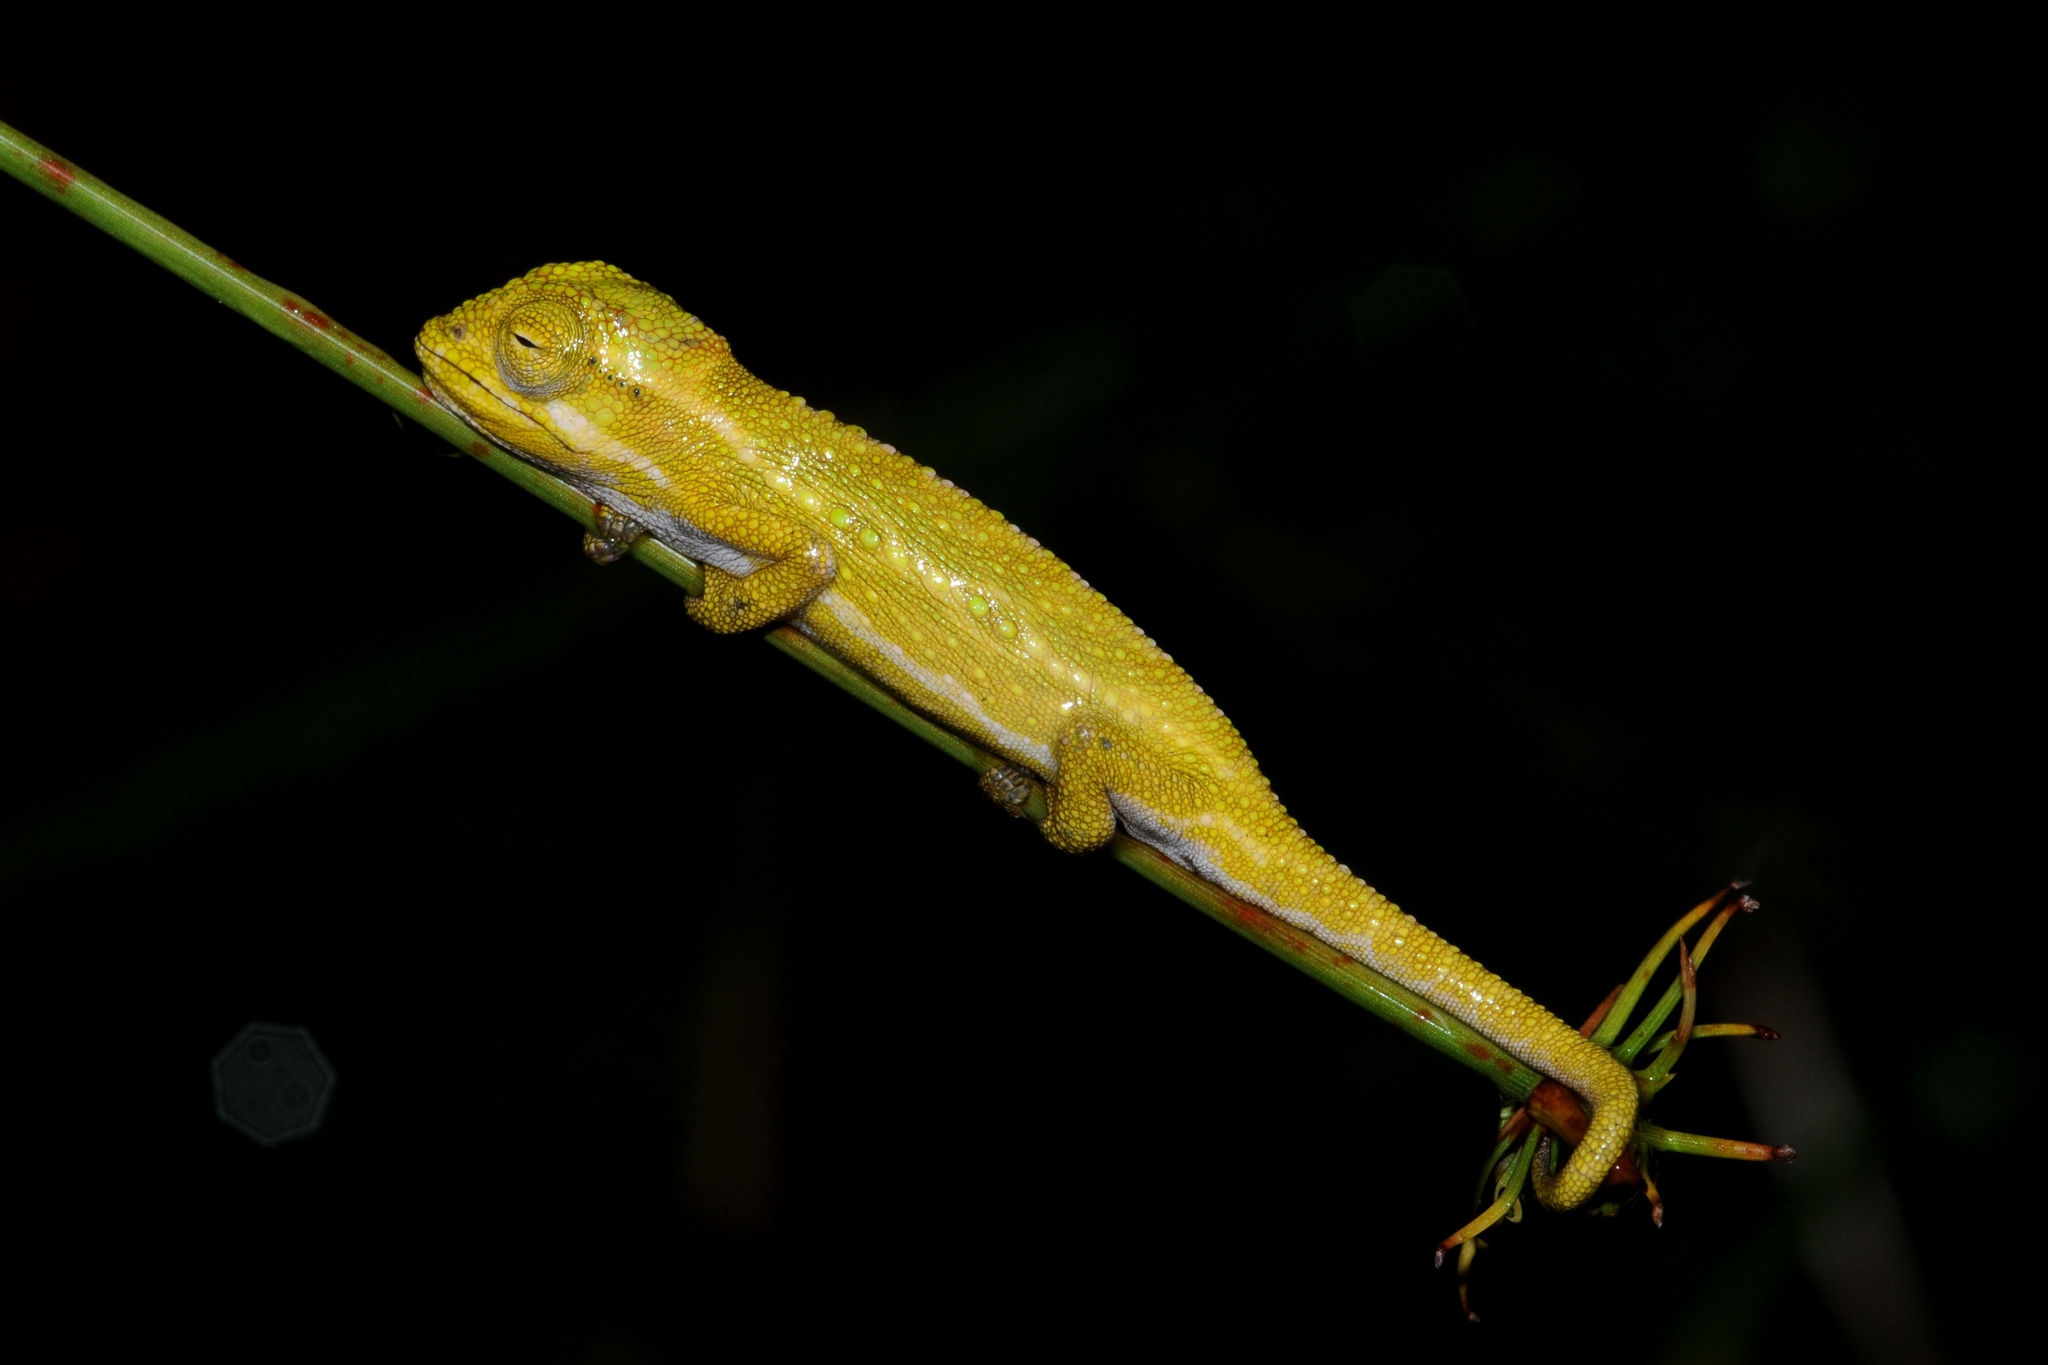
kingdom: Animalia
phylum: Chordata
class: Squamata
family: Chamaeleonidae
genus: Bradypodion
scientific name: Bradypodion pumilum
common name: Cape dwarf chameleon
